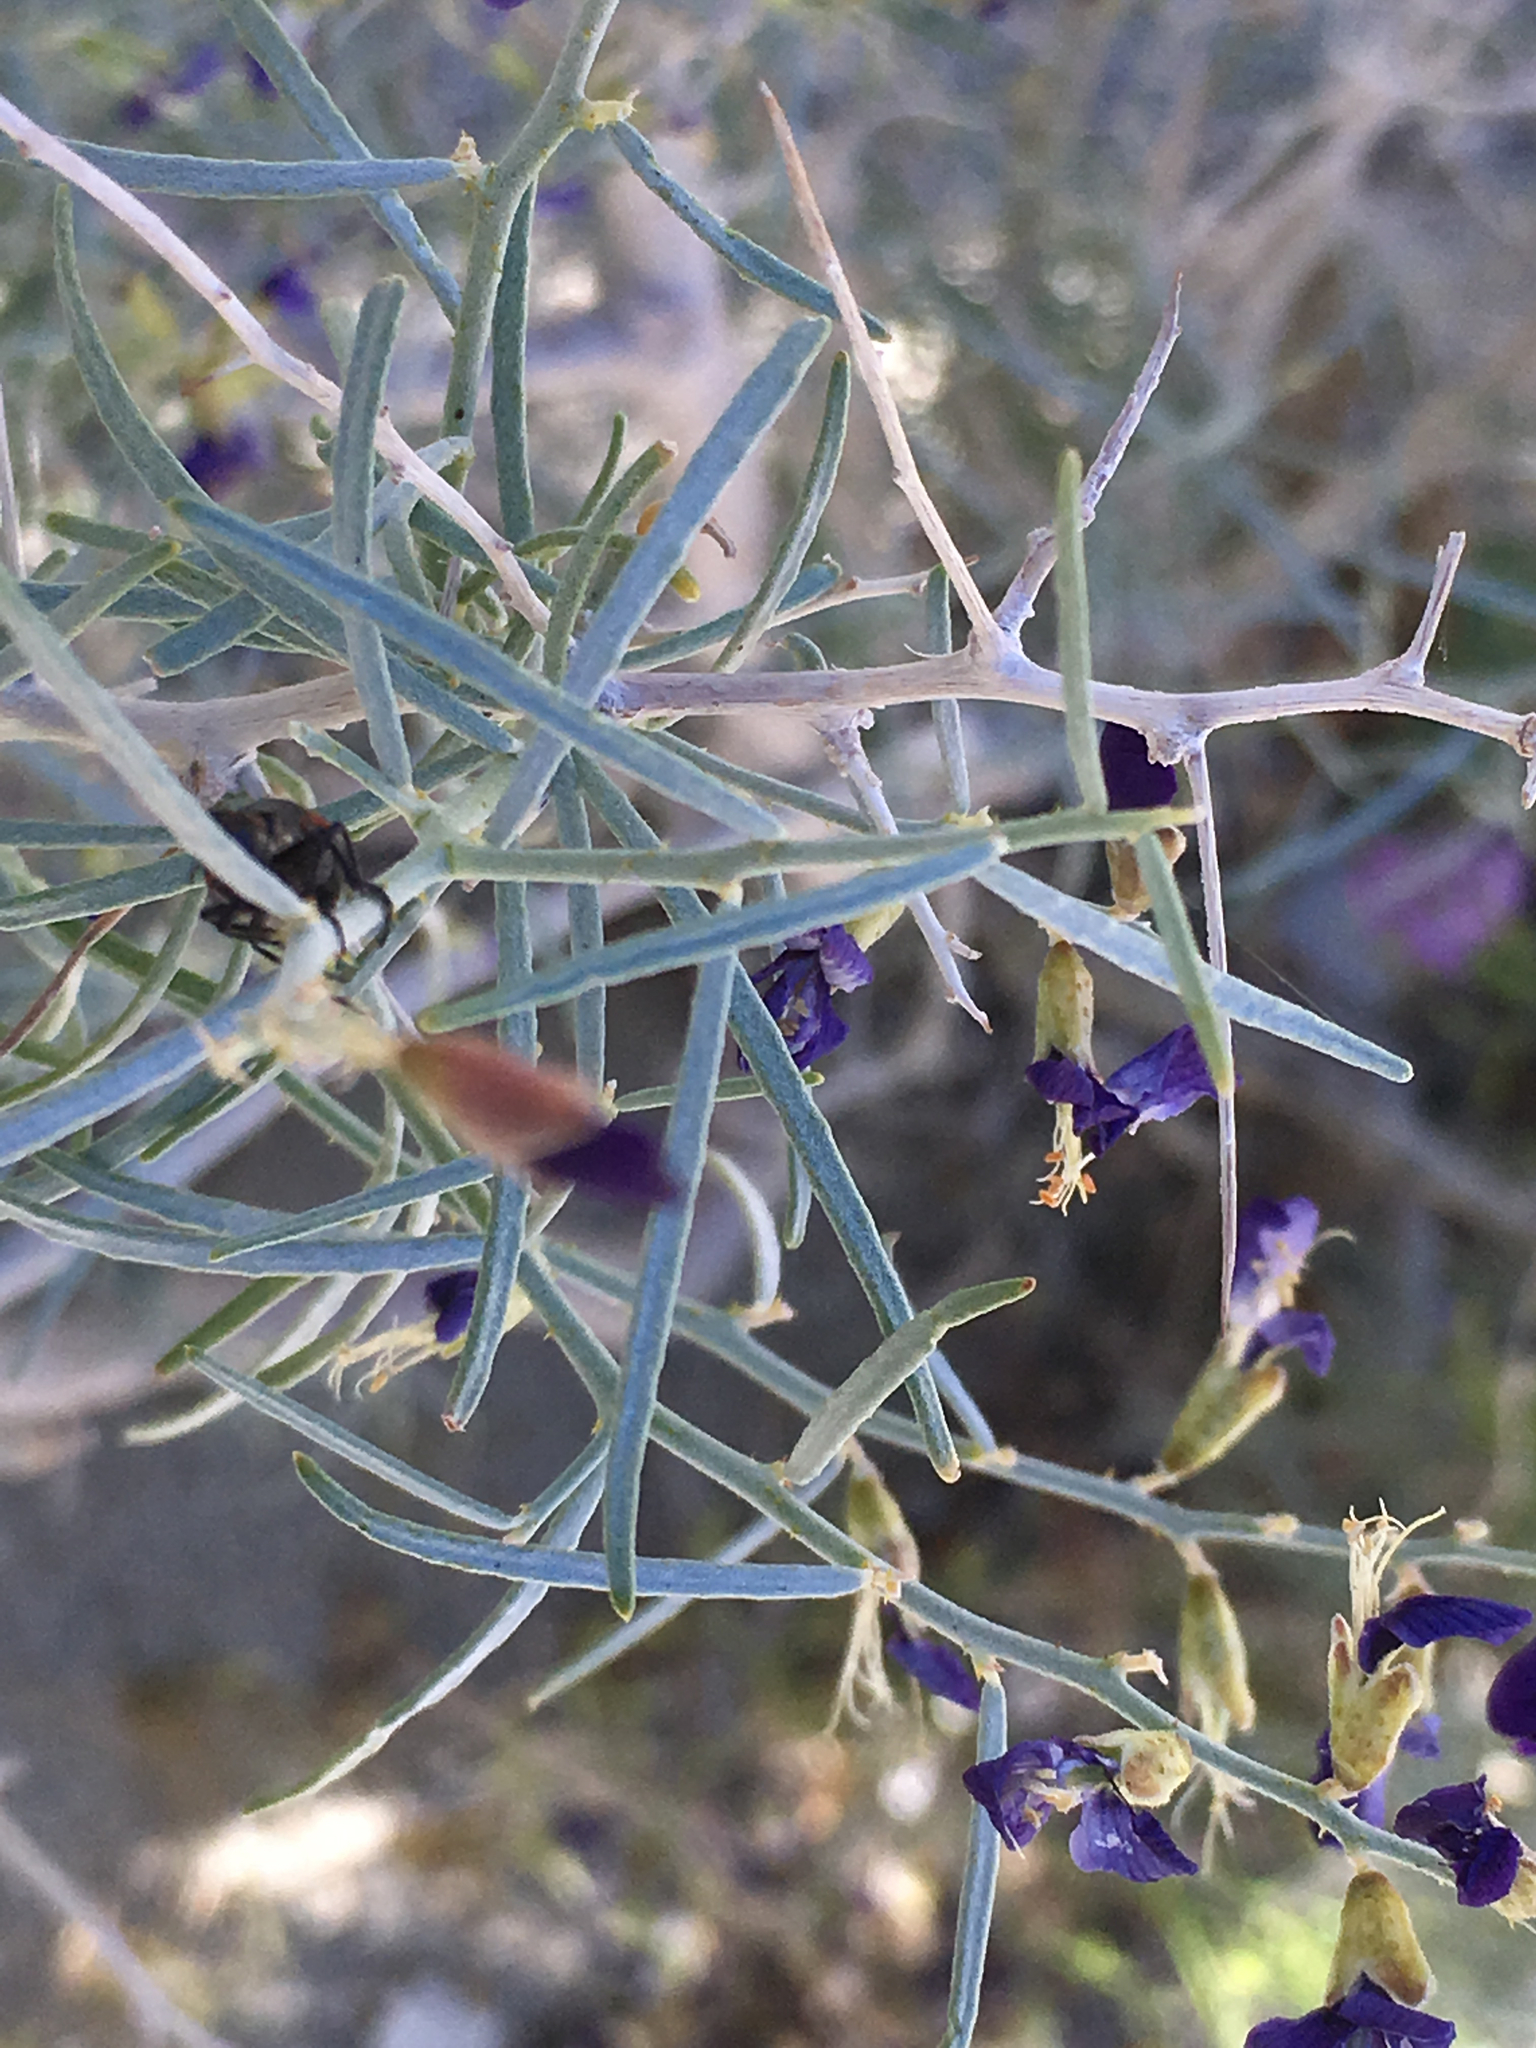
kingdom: Plantae
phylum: Tracheophyta
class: Magnoliopsida
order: Fabales
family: Fabaceae
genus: Psorothamnus
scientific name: Psorothamnus schottii
